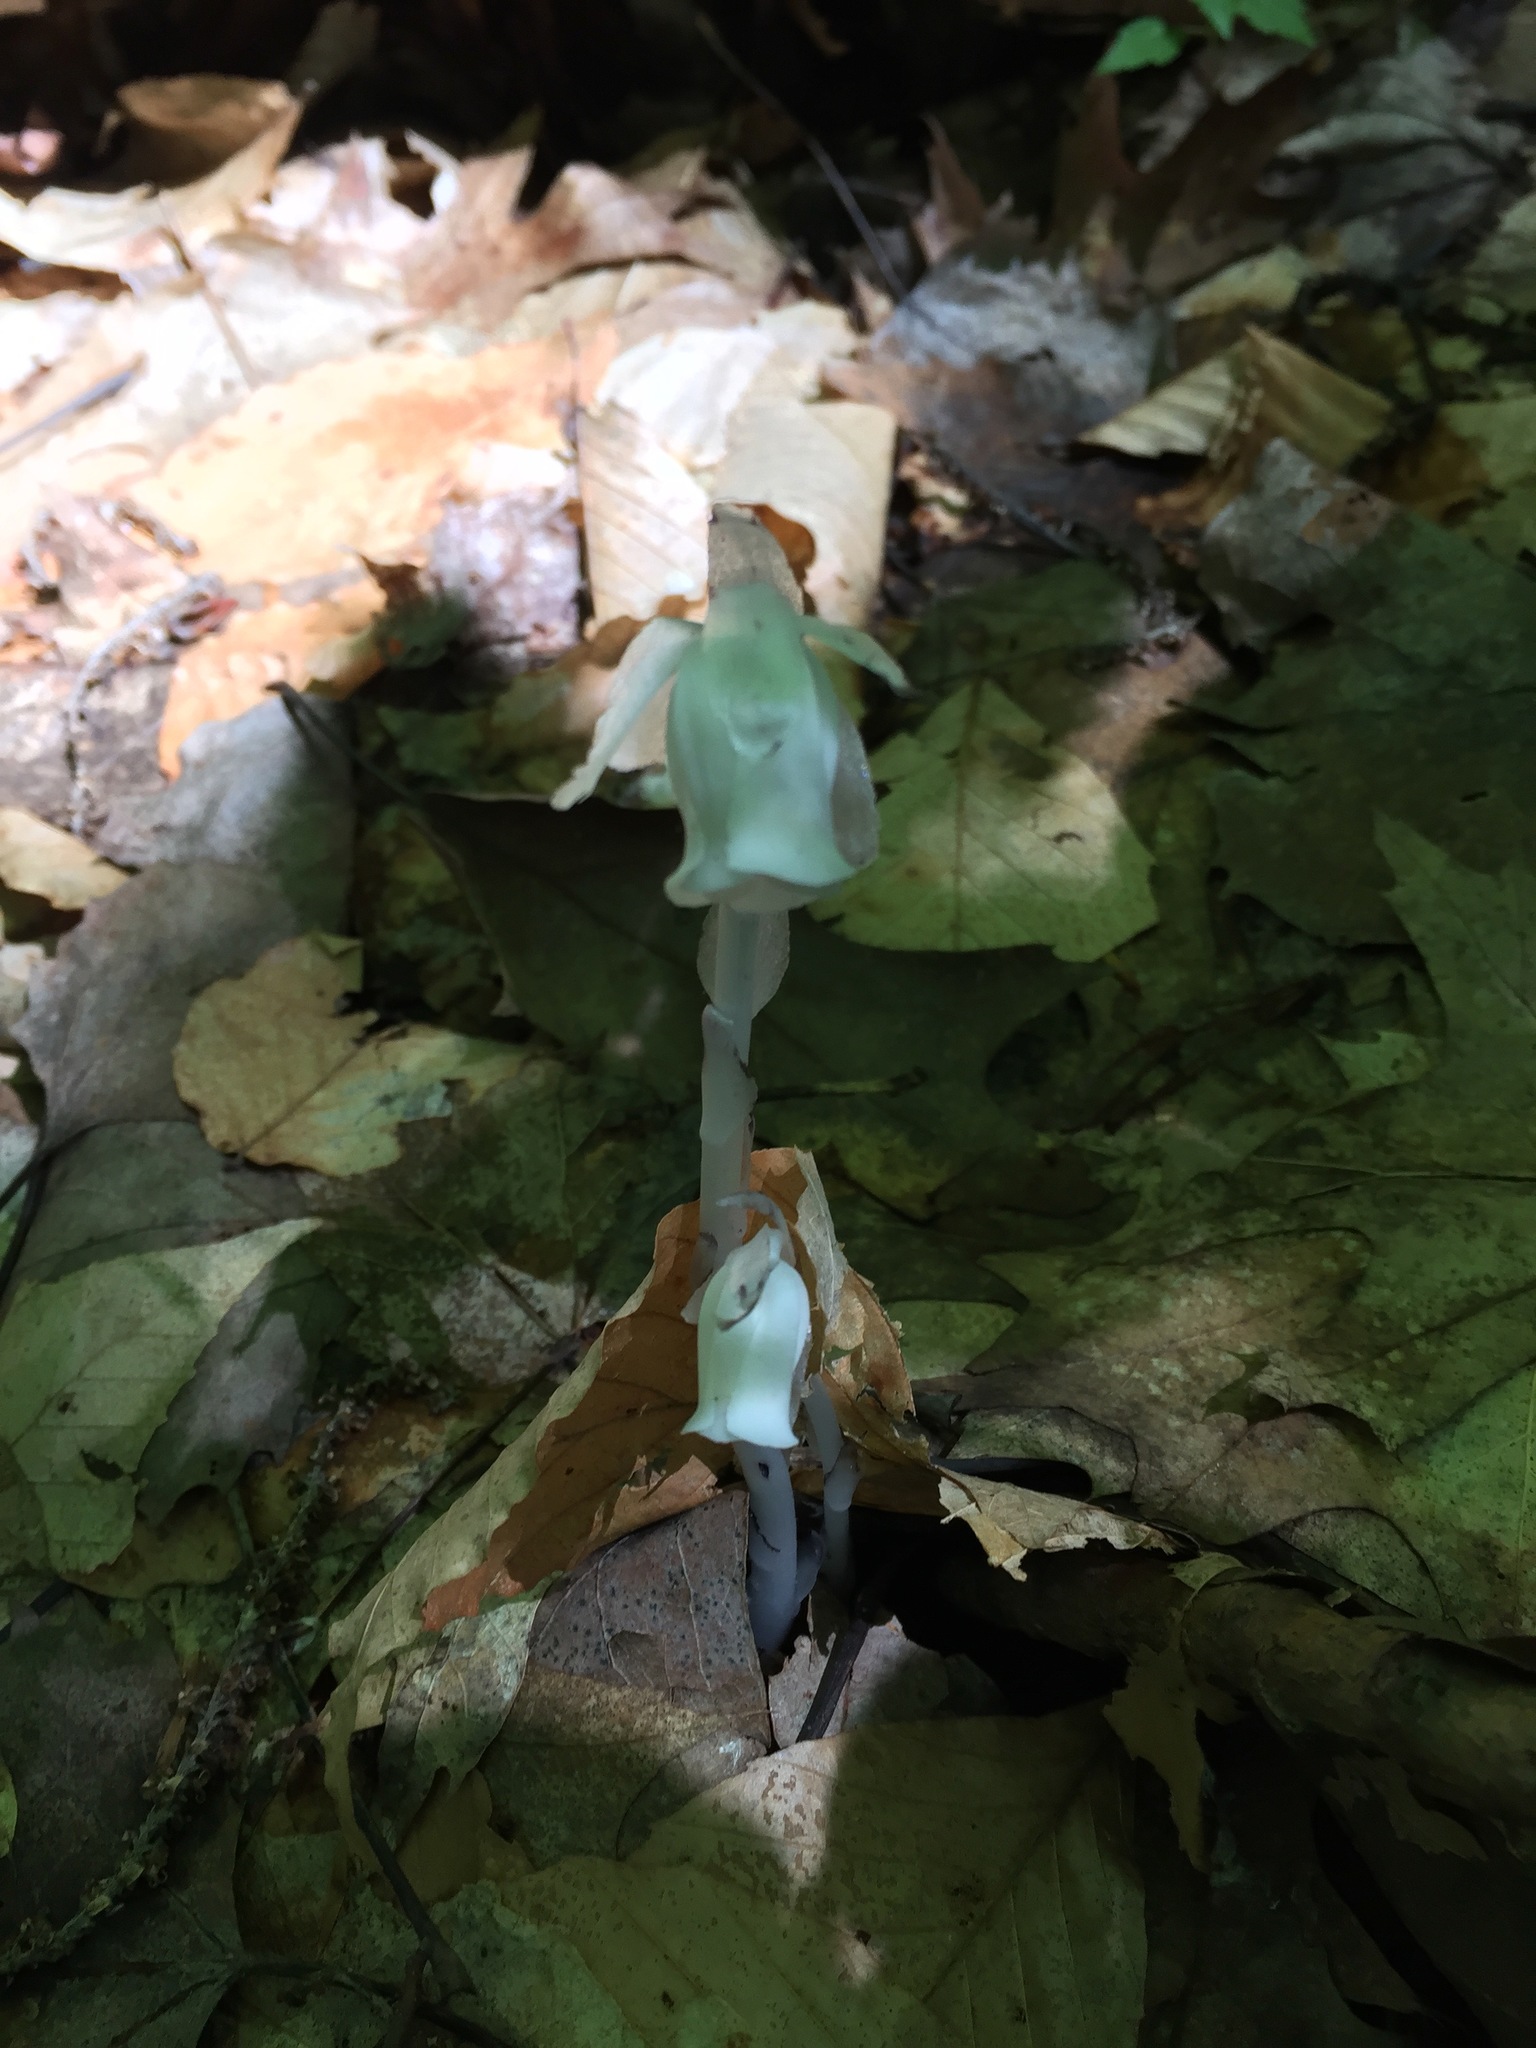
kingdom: Plantae
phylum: Tracheophyta
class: Magnoliopsida
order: Ericales
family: Ericaceae
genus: Monotropa
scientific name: Monotropa uniflora
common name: Convulsion root
